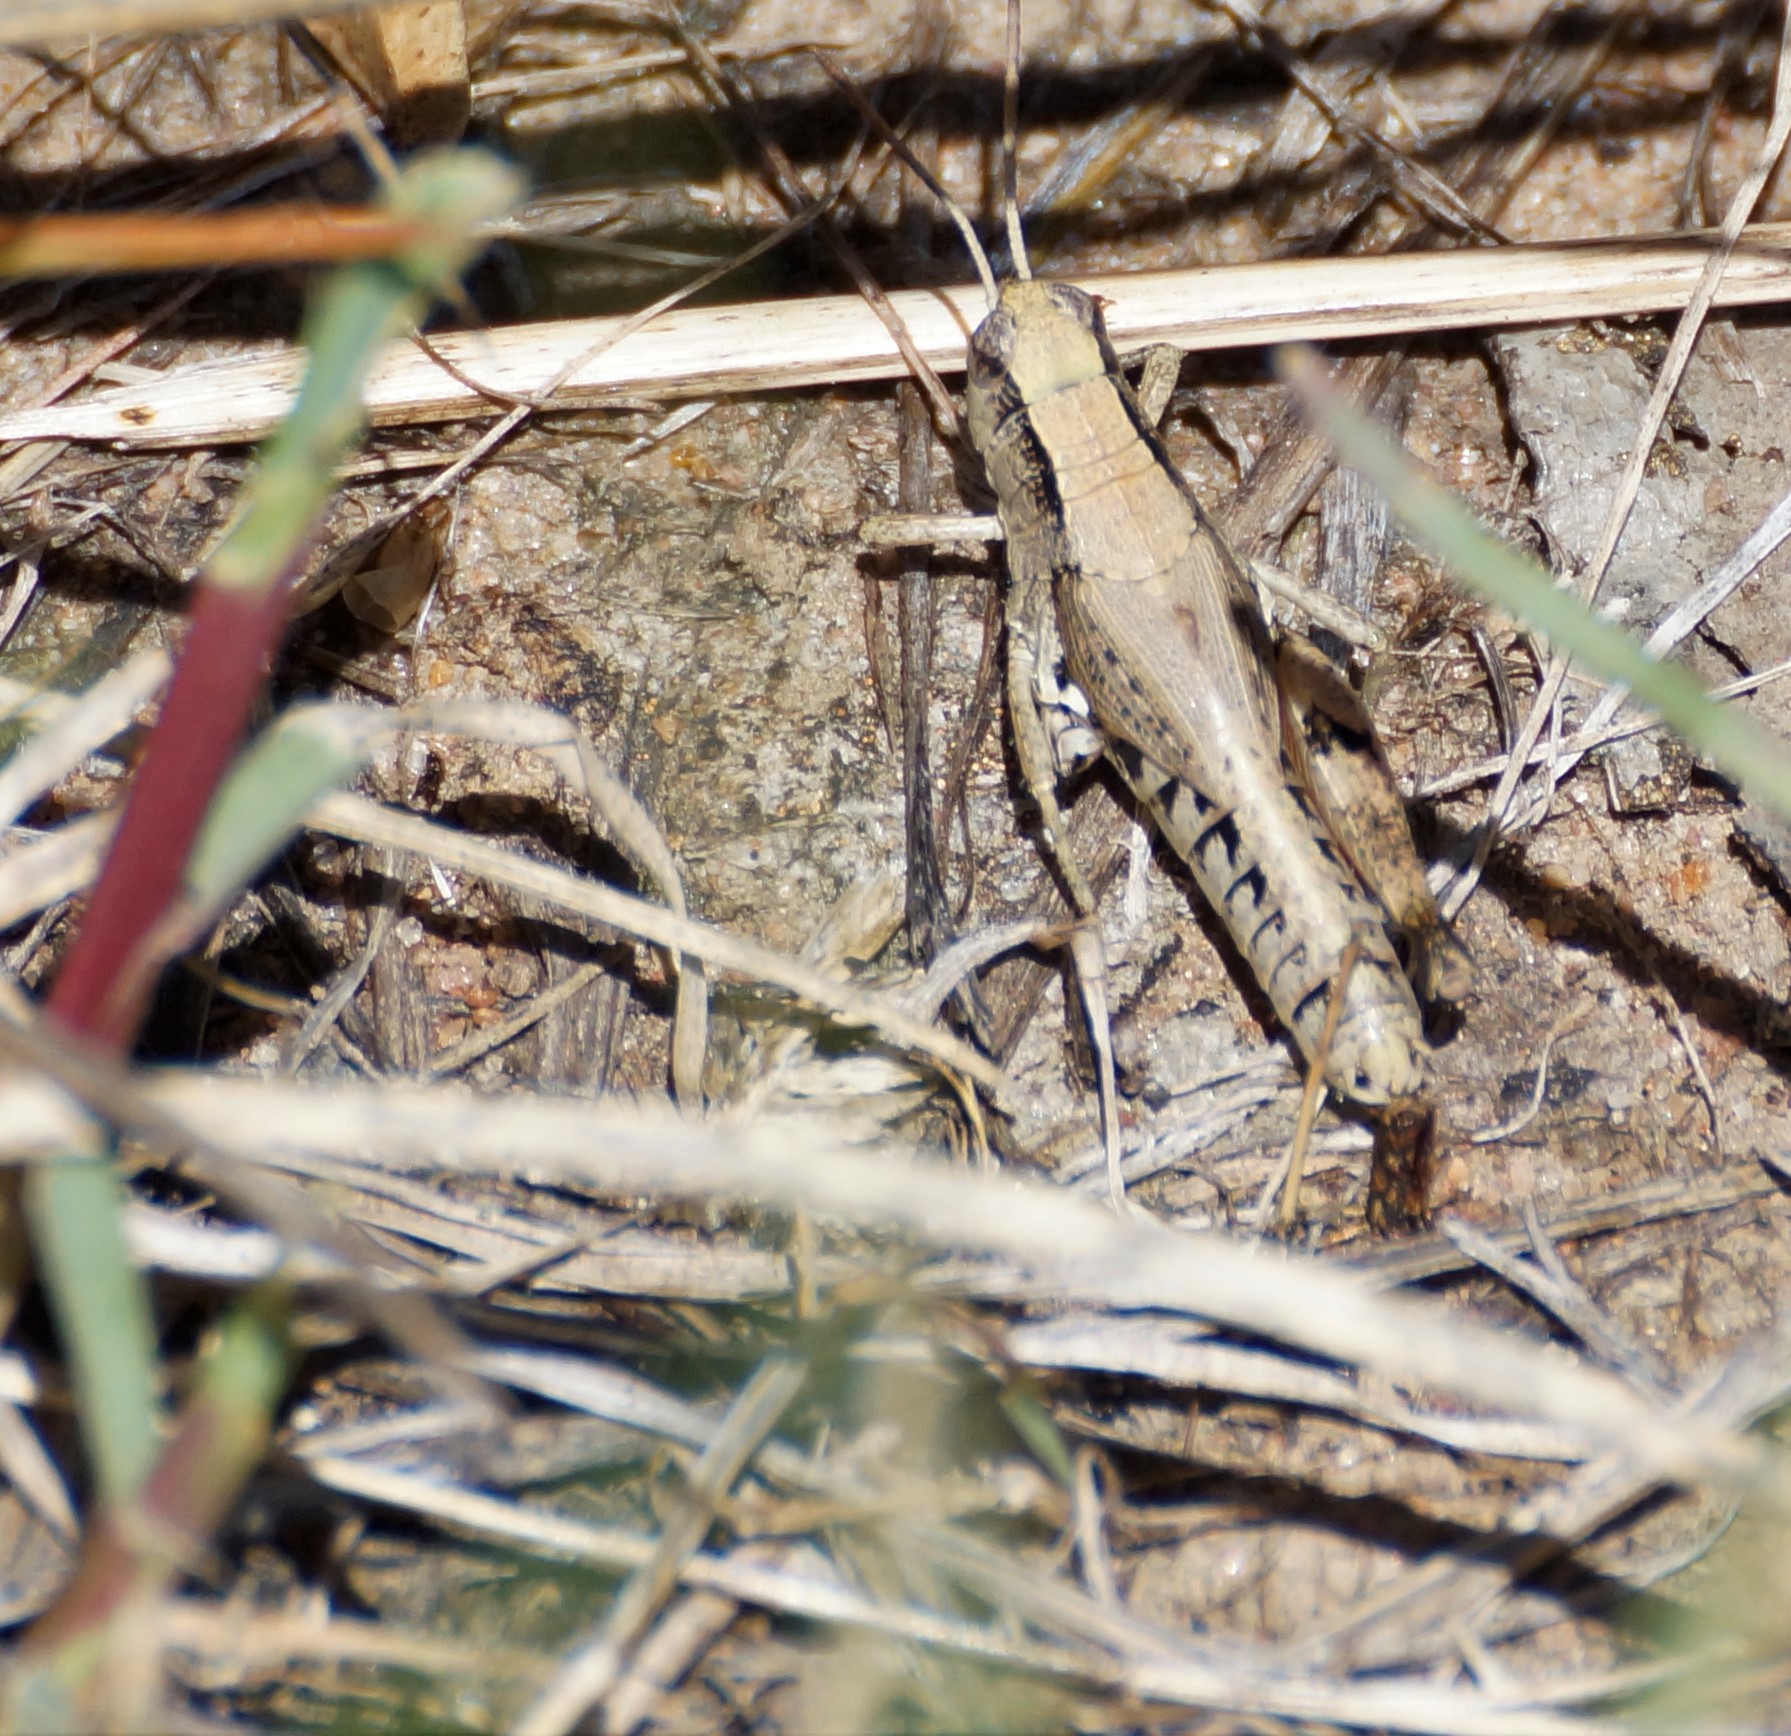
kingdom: Animalia
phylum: Arthropoda
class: Insecta
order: Orthoptera
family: Acrididae
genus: Phaulacridium
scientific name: Phaulacridium vittatum
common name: Wingless grasshopper
